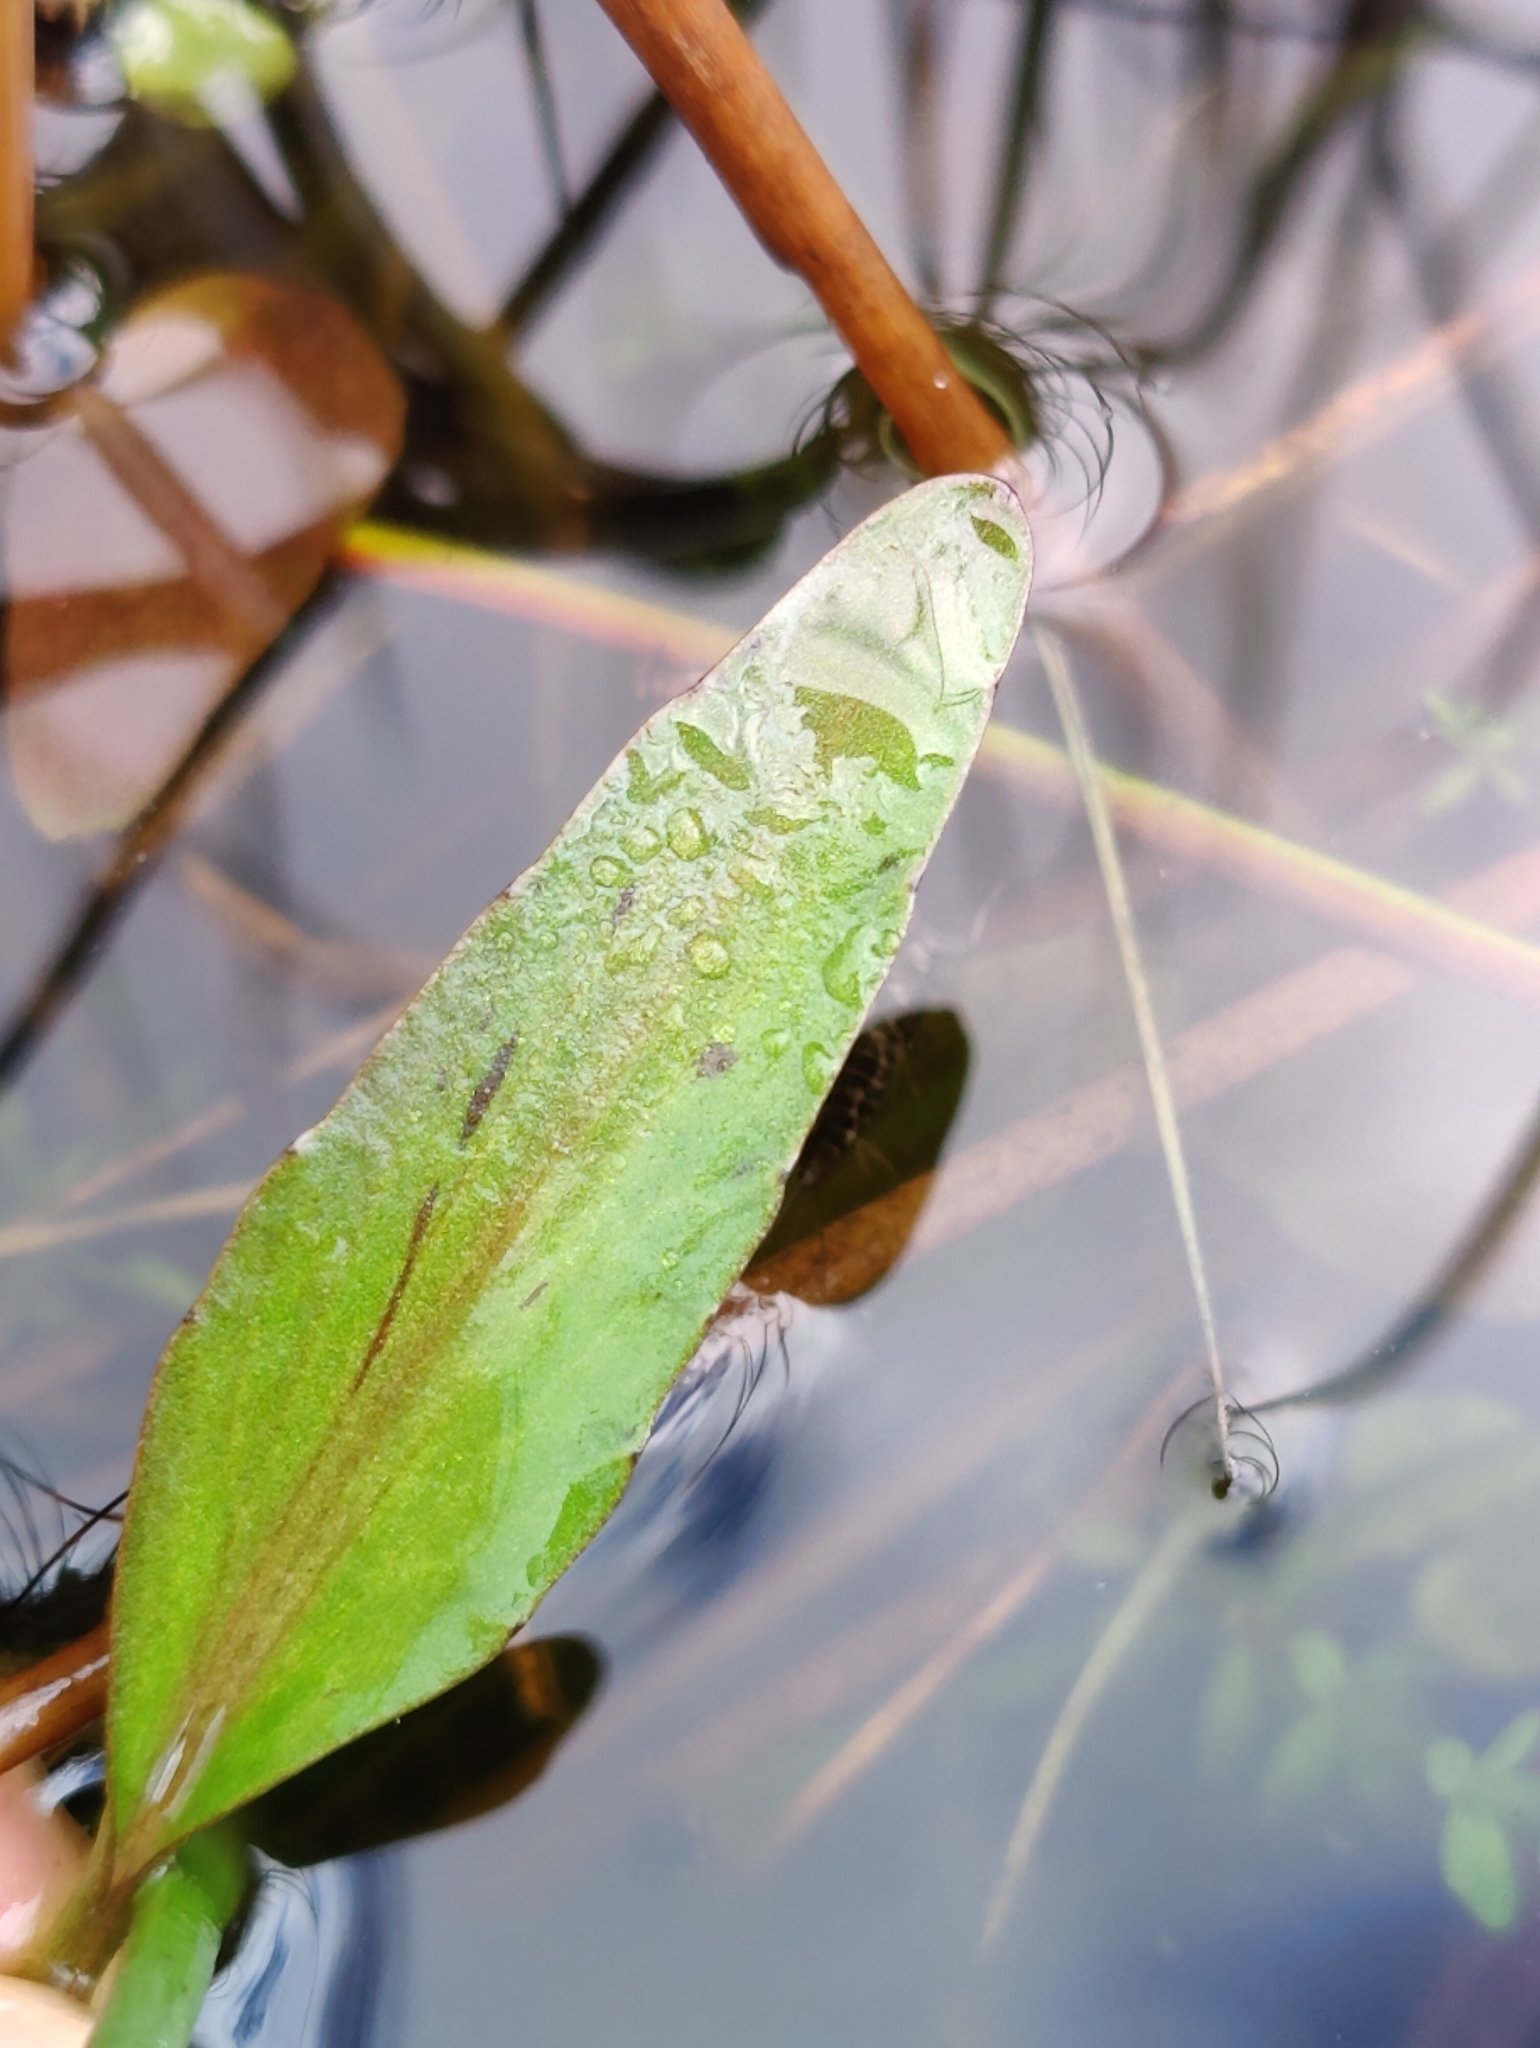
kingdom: Plantae
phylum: Tracheophyta
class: Magnoliopsida
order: Ranunculales
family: Ranunculaceae
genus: Ranunculus
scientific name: Ranunculus lingua
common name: Greater spearwort
